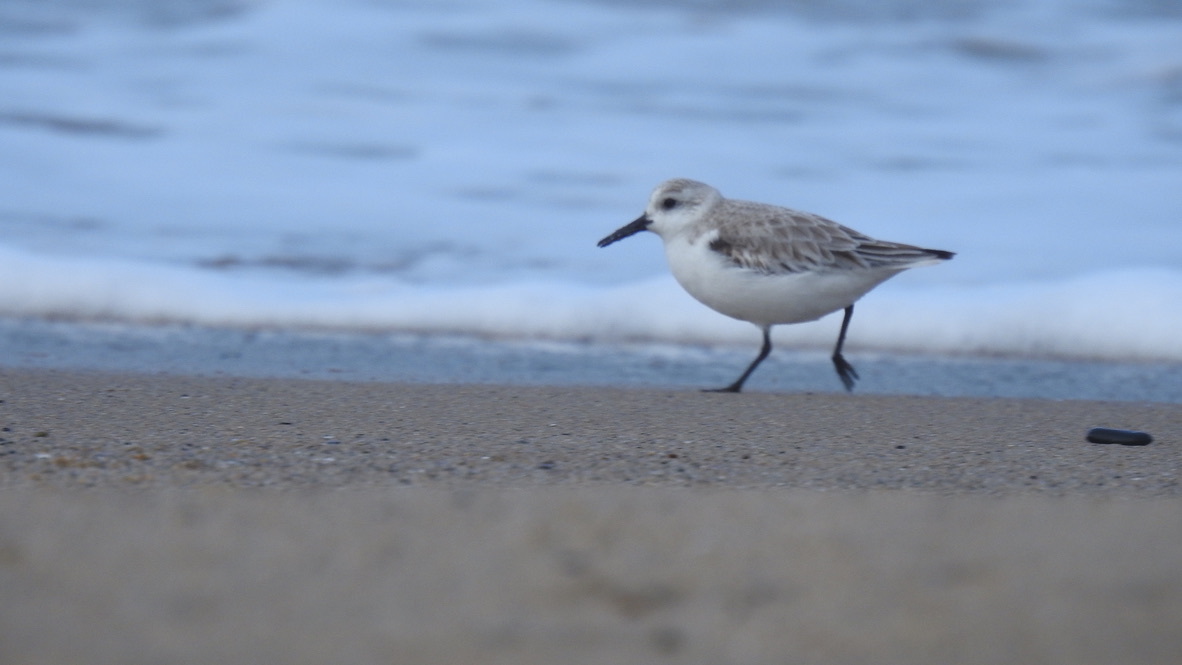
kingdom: Animalia
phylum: Chordata
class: Aves
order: Charadriiformes
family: Scolopacidae
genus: Calidris
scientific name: Calidris alba
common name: Sanderling
